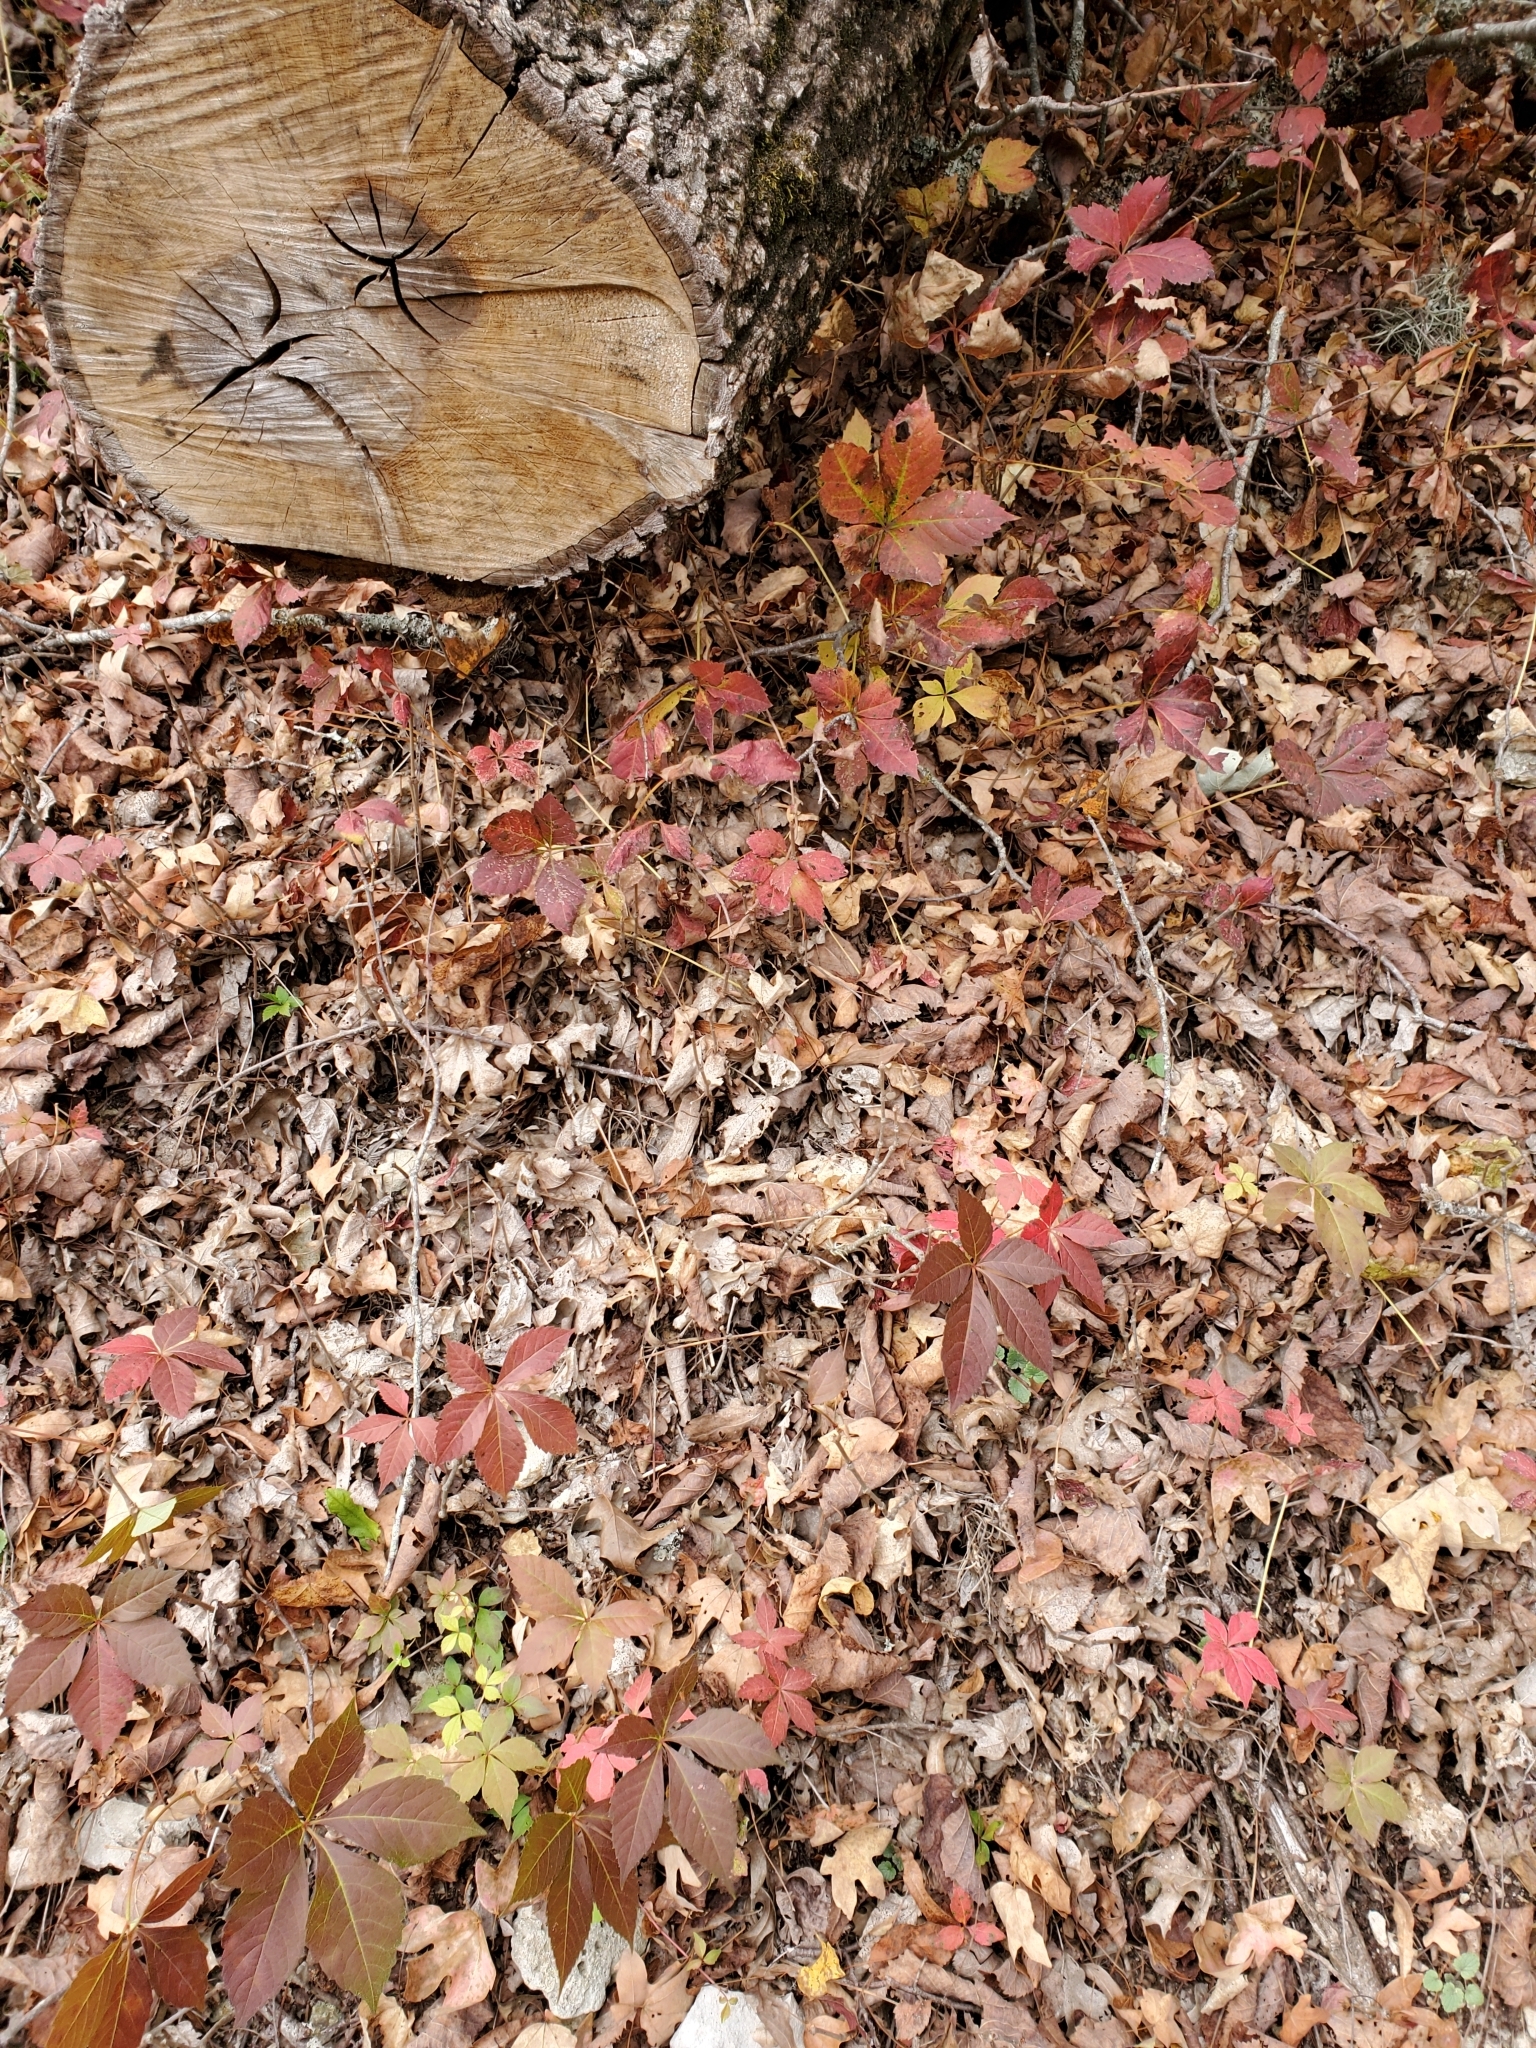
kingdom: Plantae
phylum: Tracheophyta
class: Magnoliopsida
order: Vitales
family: Vitaceae
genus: Parthenocissus
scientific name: Parthenocissus quinquefolia
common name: Virginia-creeper
